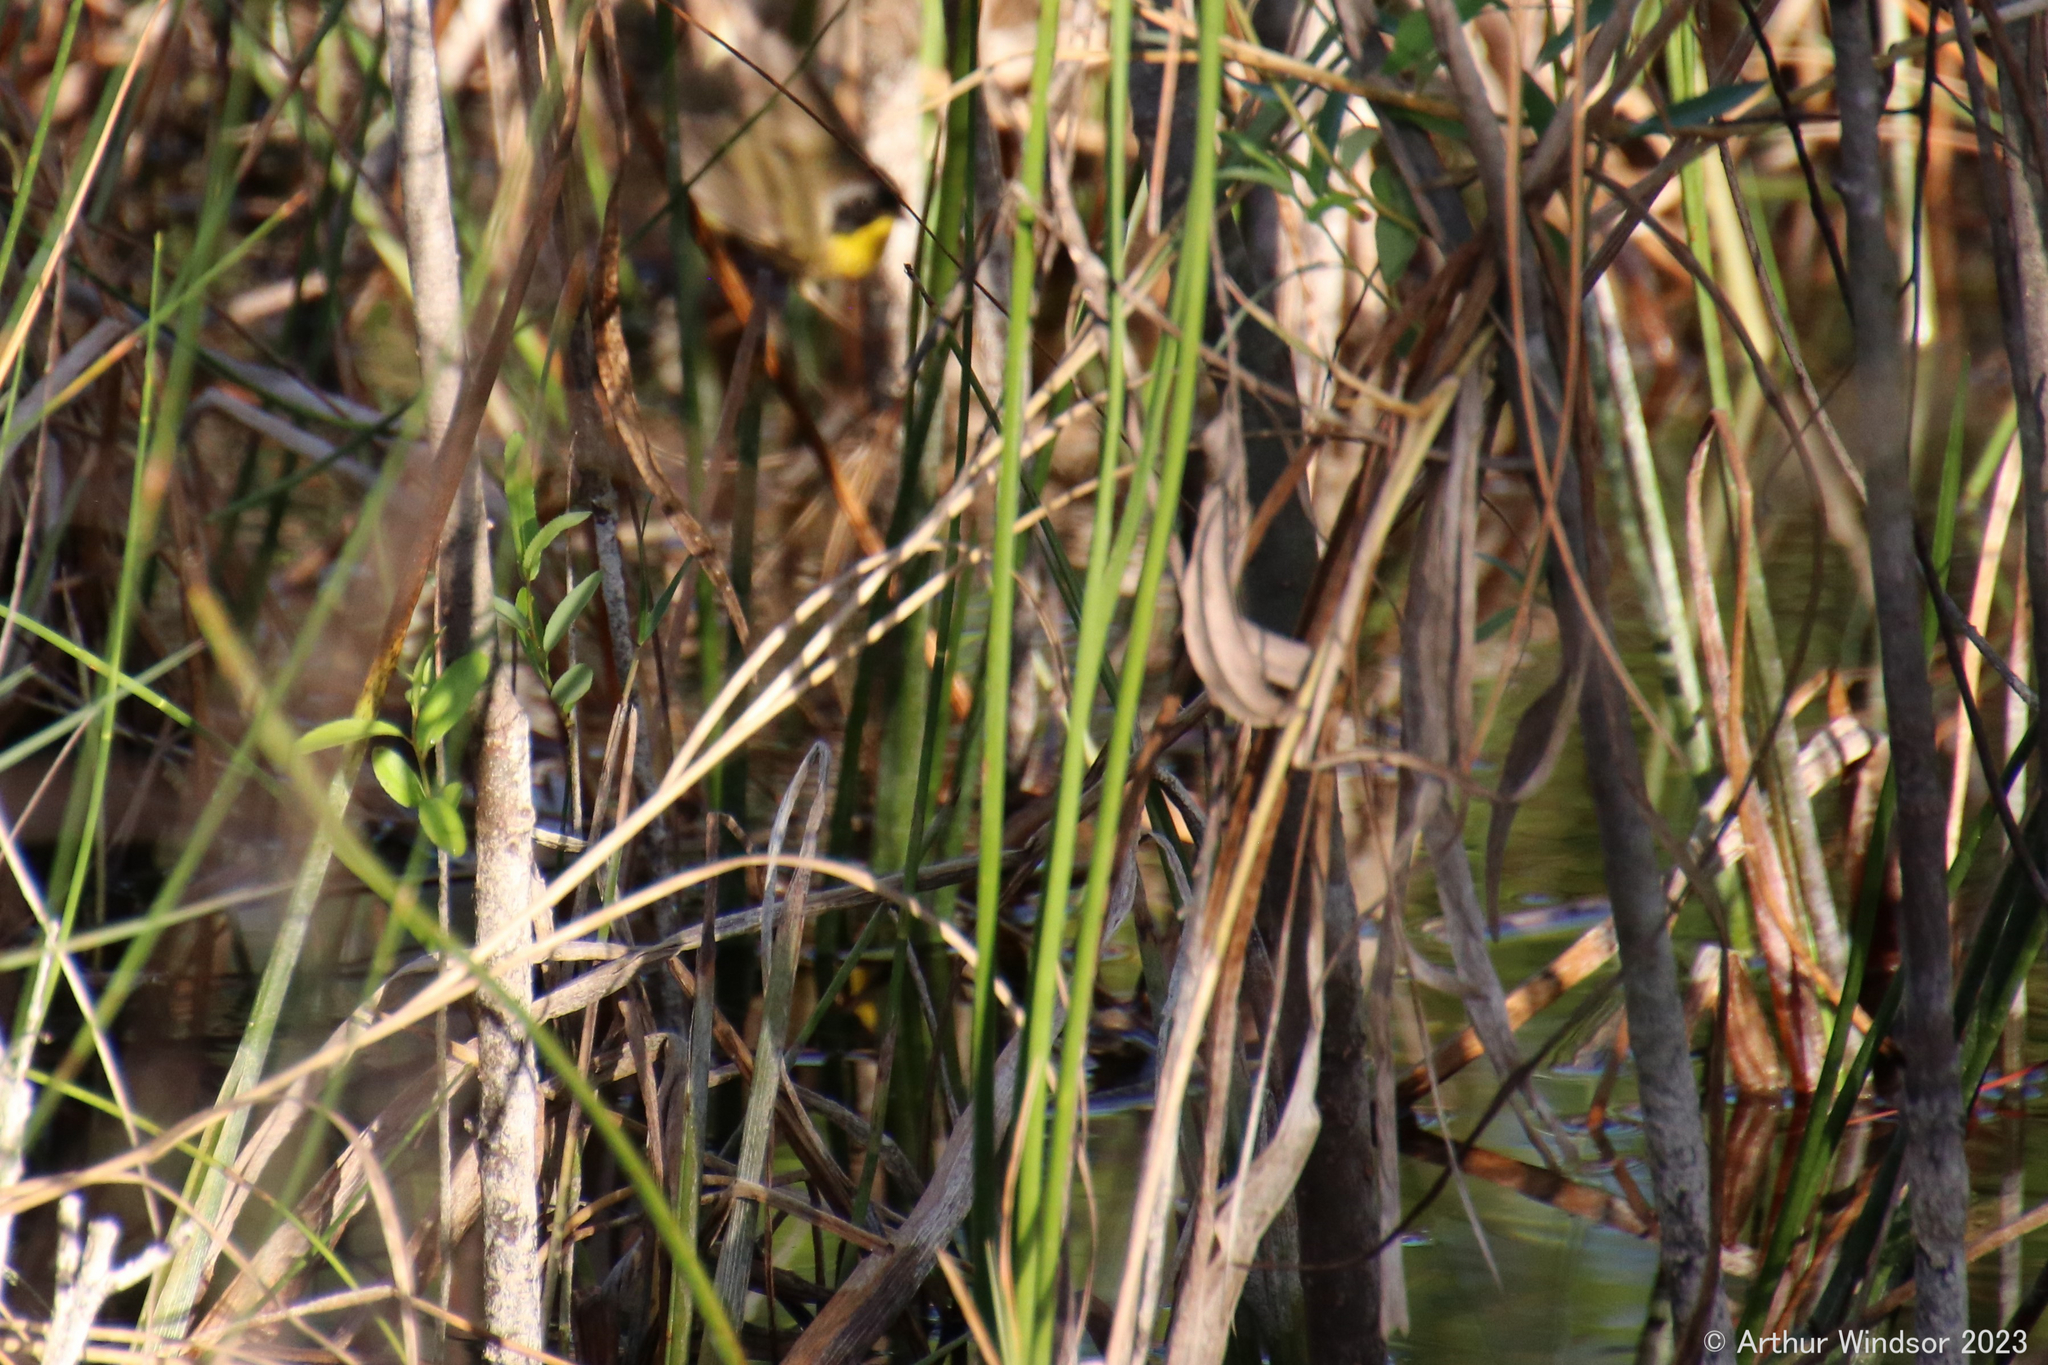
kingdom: Animalia
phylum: Chordata
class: Aves
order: Passeriformes
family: Parulidae
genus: Geothlypis
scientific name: Geothlypis trichas
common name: Common yellowthroat
